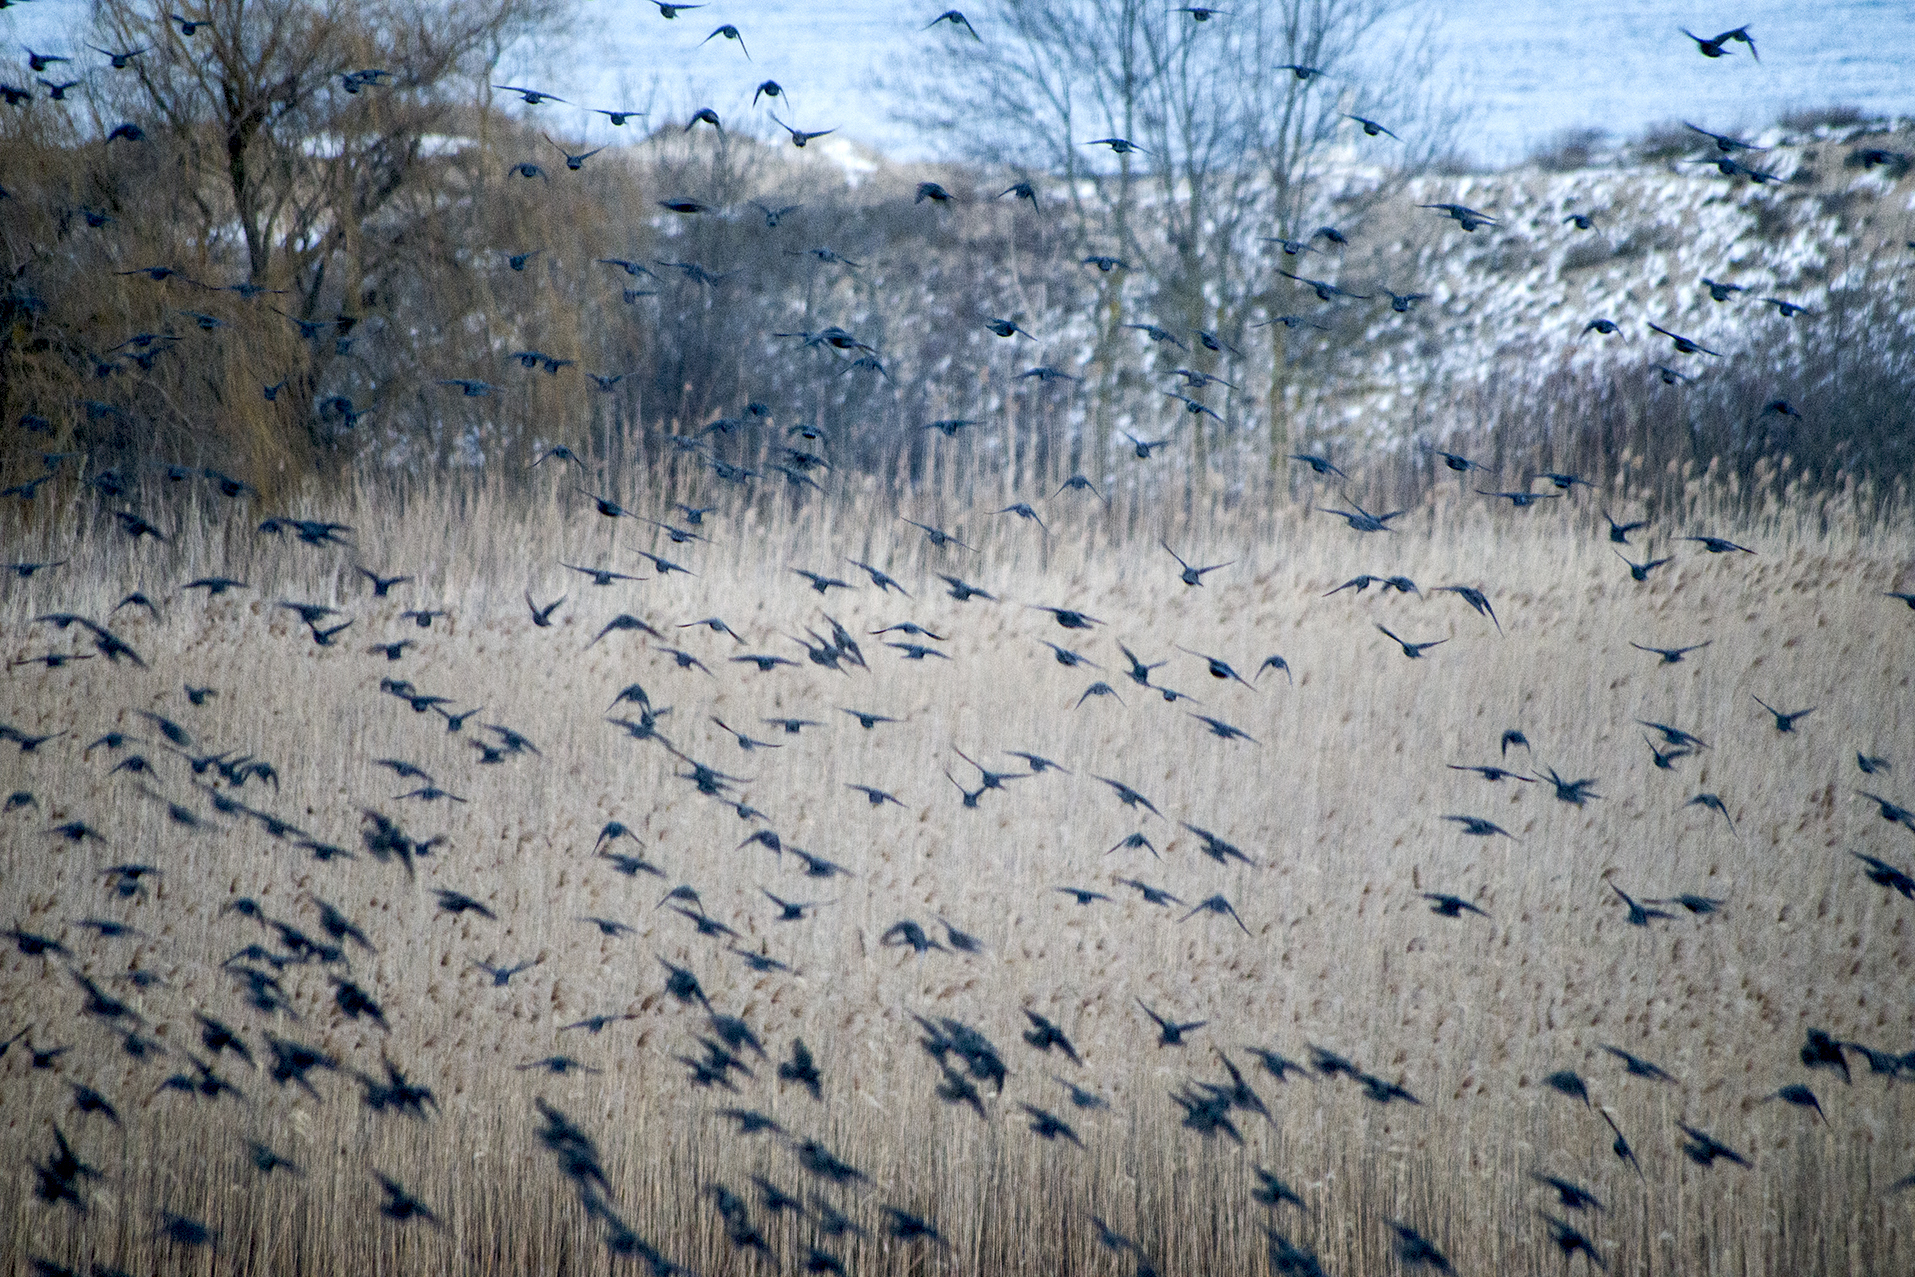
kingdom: Animalia
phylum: Chordata
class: Aves
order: Passeriformes
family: Sturnidae
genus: Sturnus
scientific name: Sturnus vulgaris
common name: Common starling
